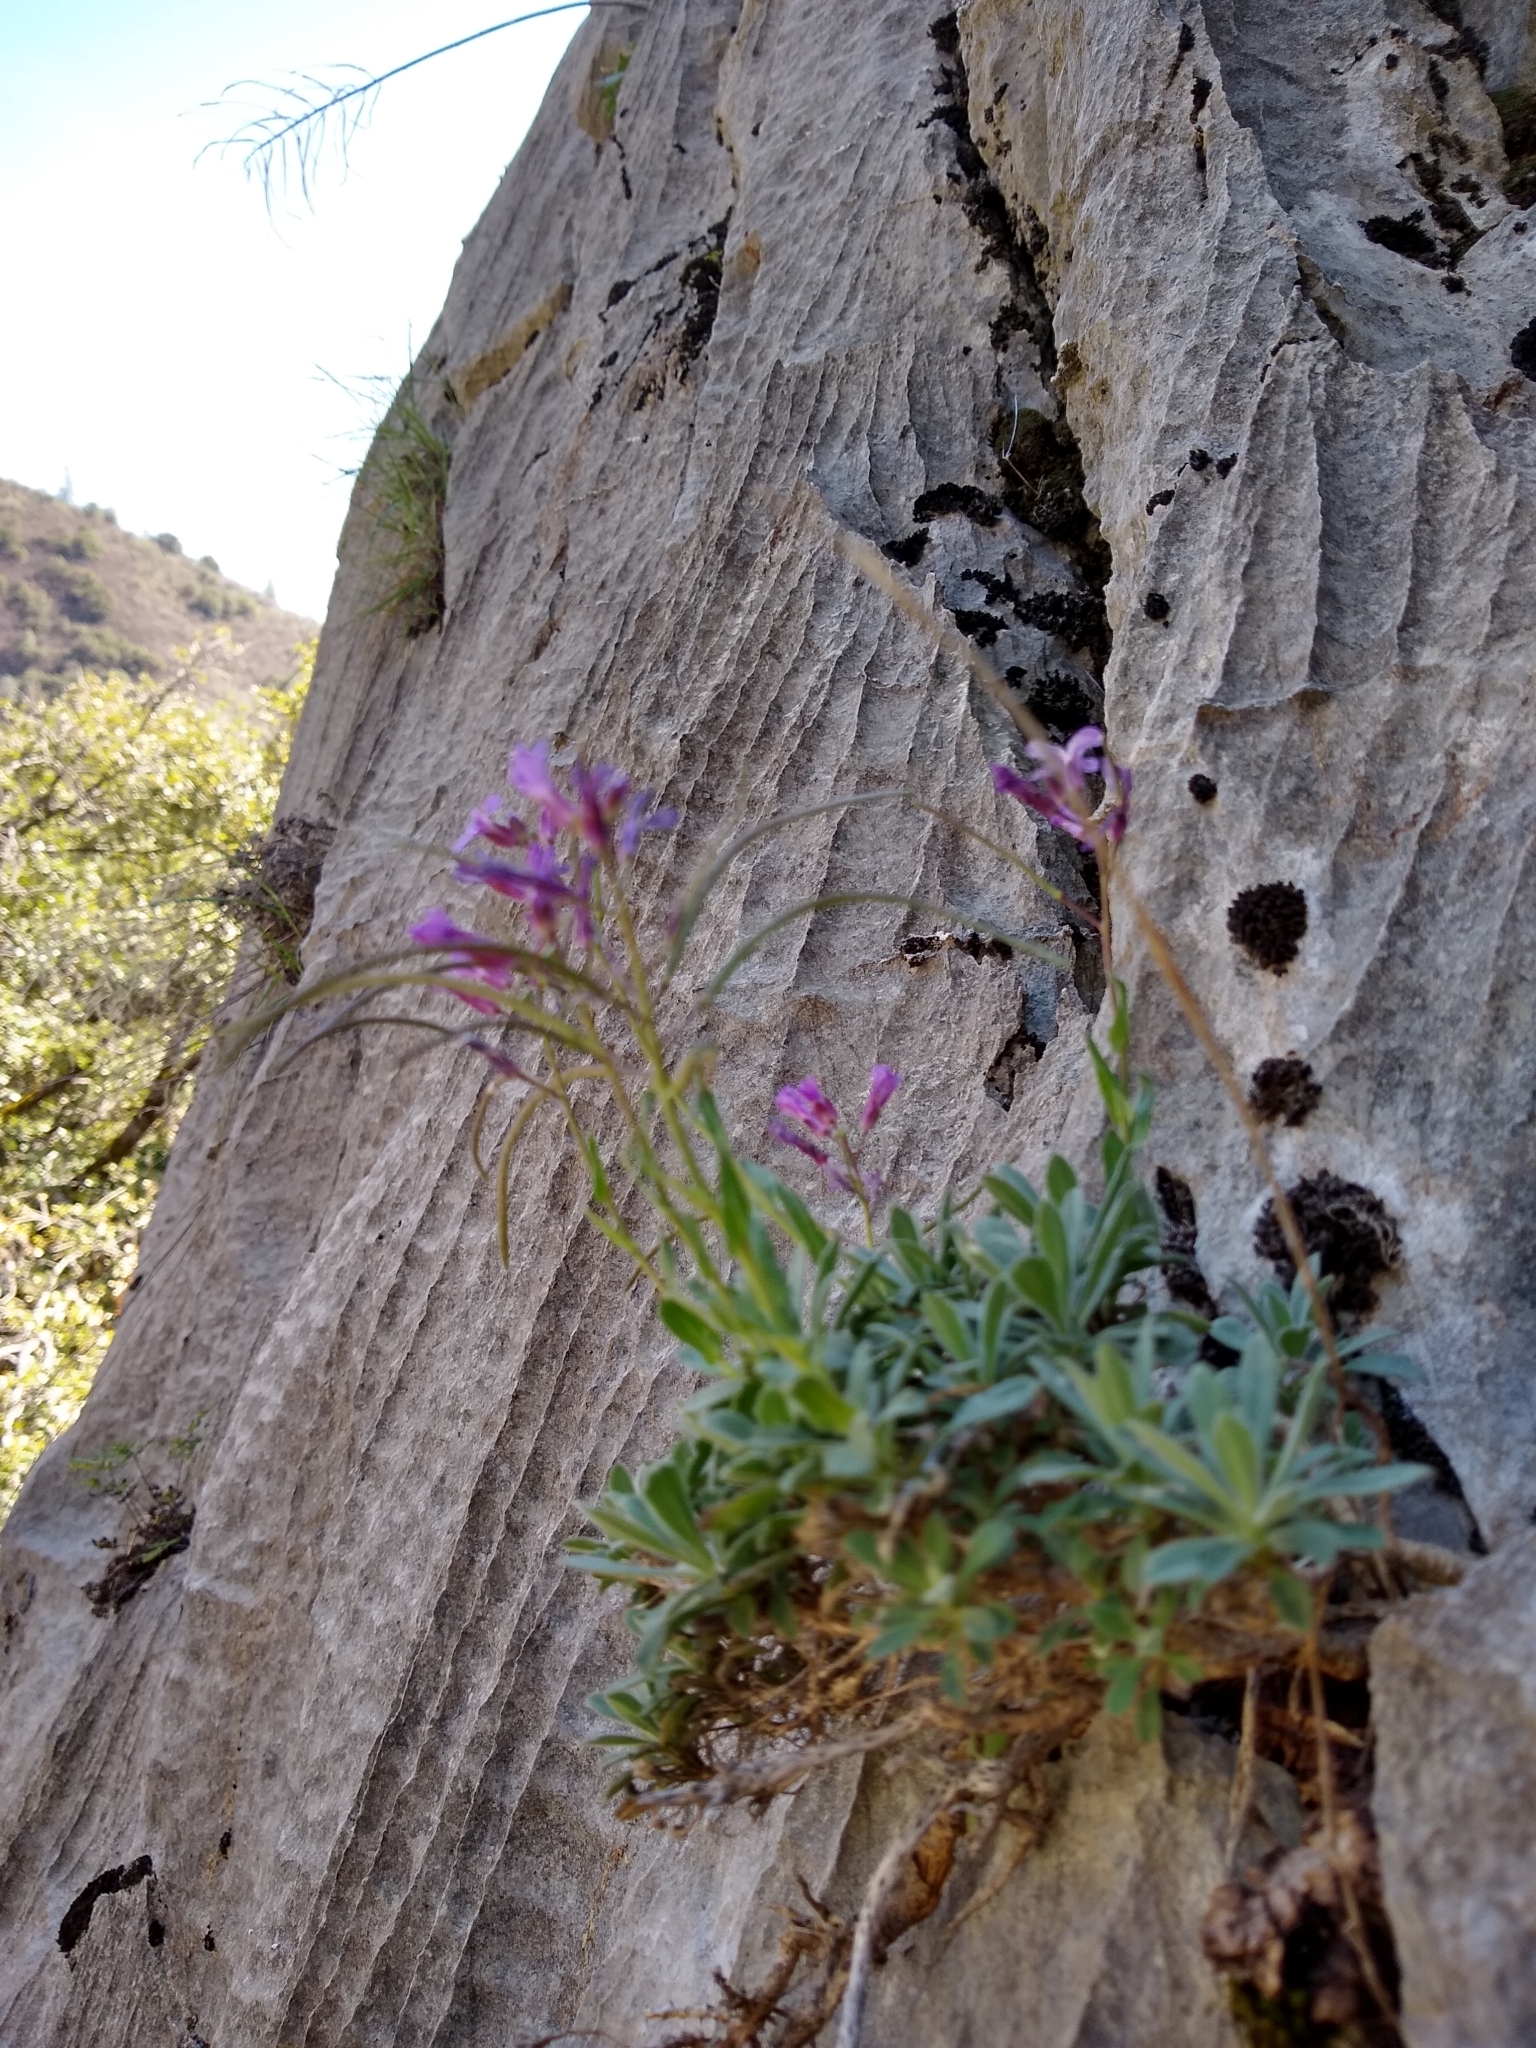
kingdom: Plantae
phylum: Tracheophyta
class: Magnoliopsida
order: Brassicales
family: Brassicaceae
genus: Boechera
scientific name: Boechera breweri
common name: Brewer's rockcress
